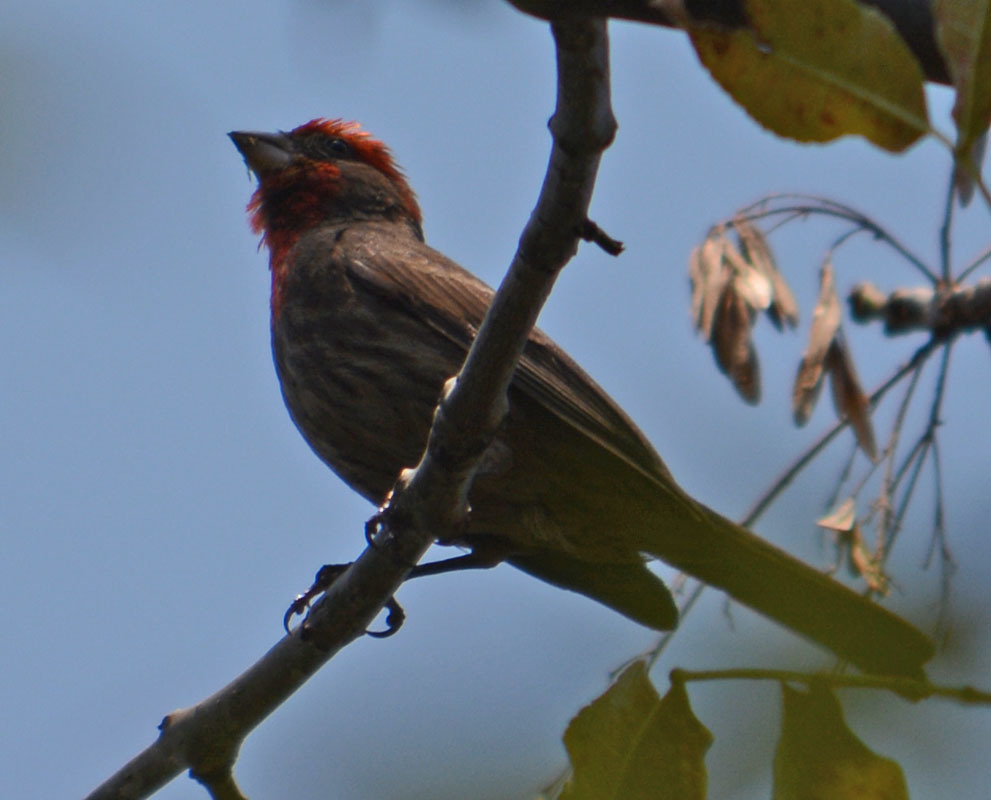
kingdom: Animalia
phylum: Chordata
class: Aves
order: Passeriformes
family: Fringillidae
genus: Haemorhous
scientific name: Haemorhous mexicanus
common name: House finch
